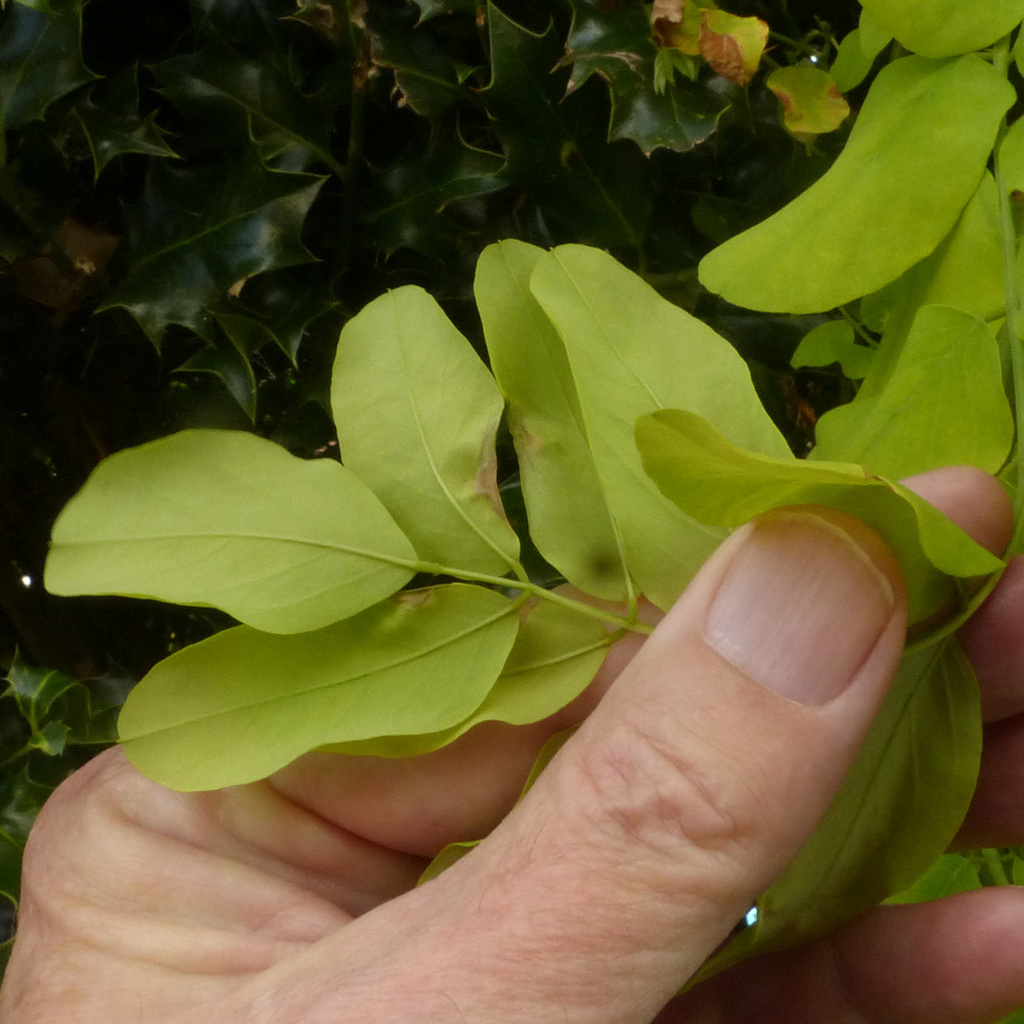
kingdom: Animalia
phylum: Arthropoda
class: Insecta
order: Diptera
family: Cecidomyiidae
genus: Obolodiplosis
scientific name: Obolodiplosis robiniae
